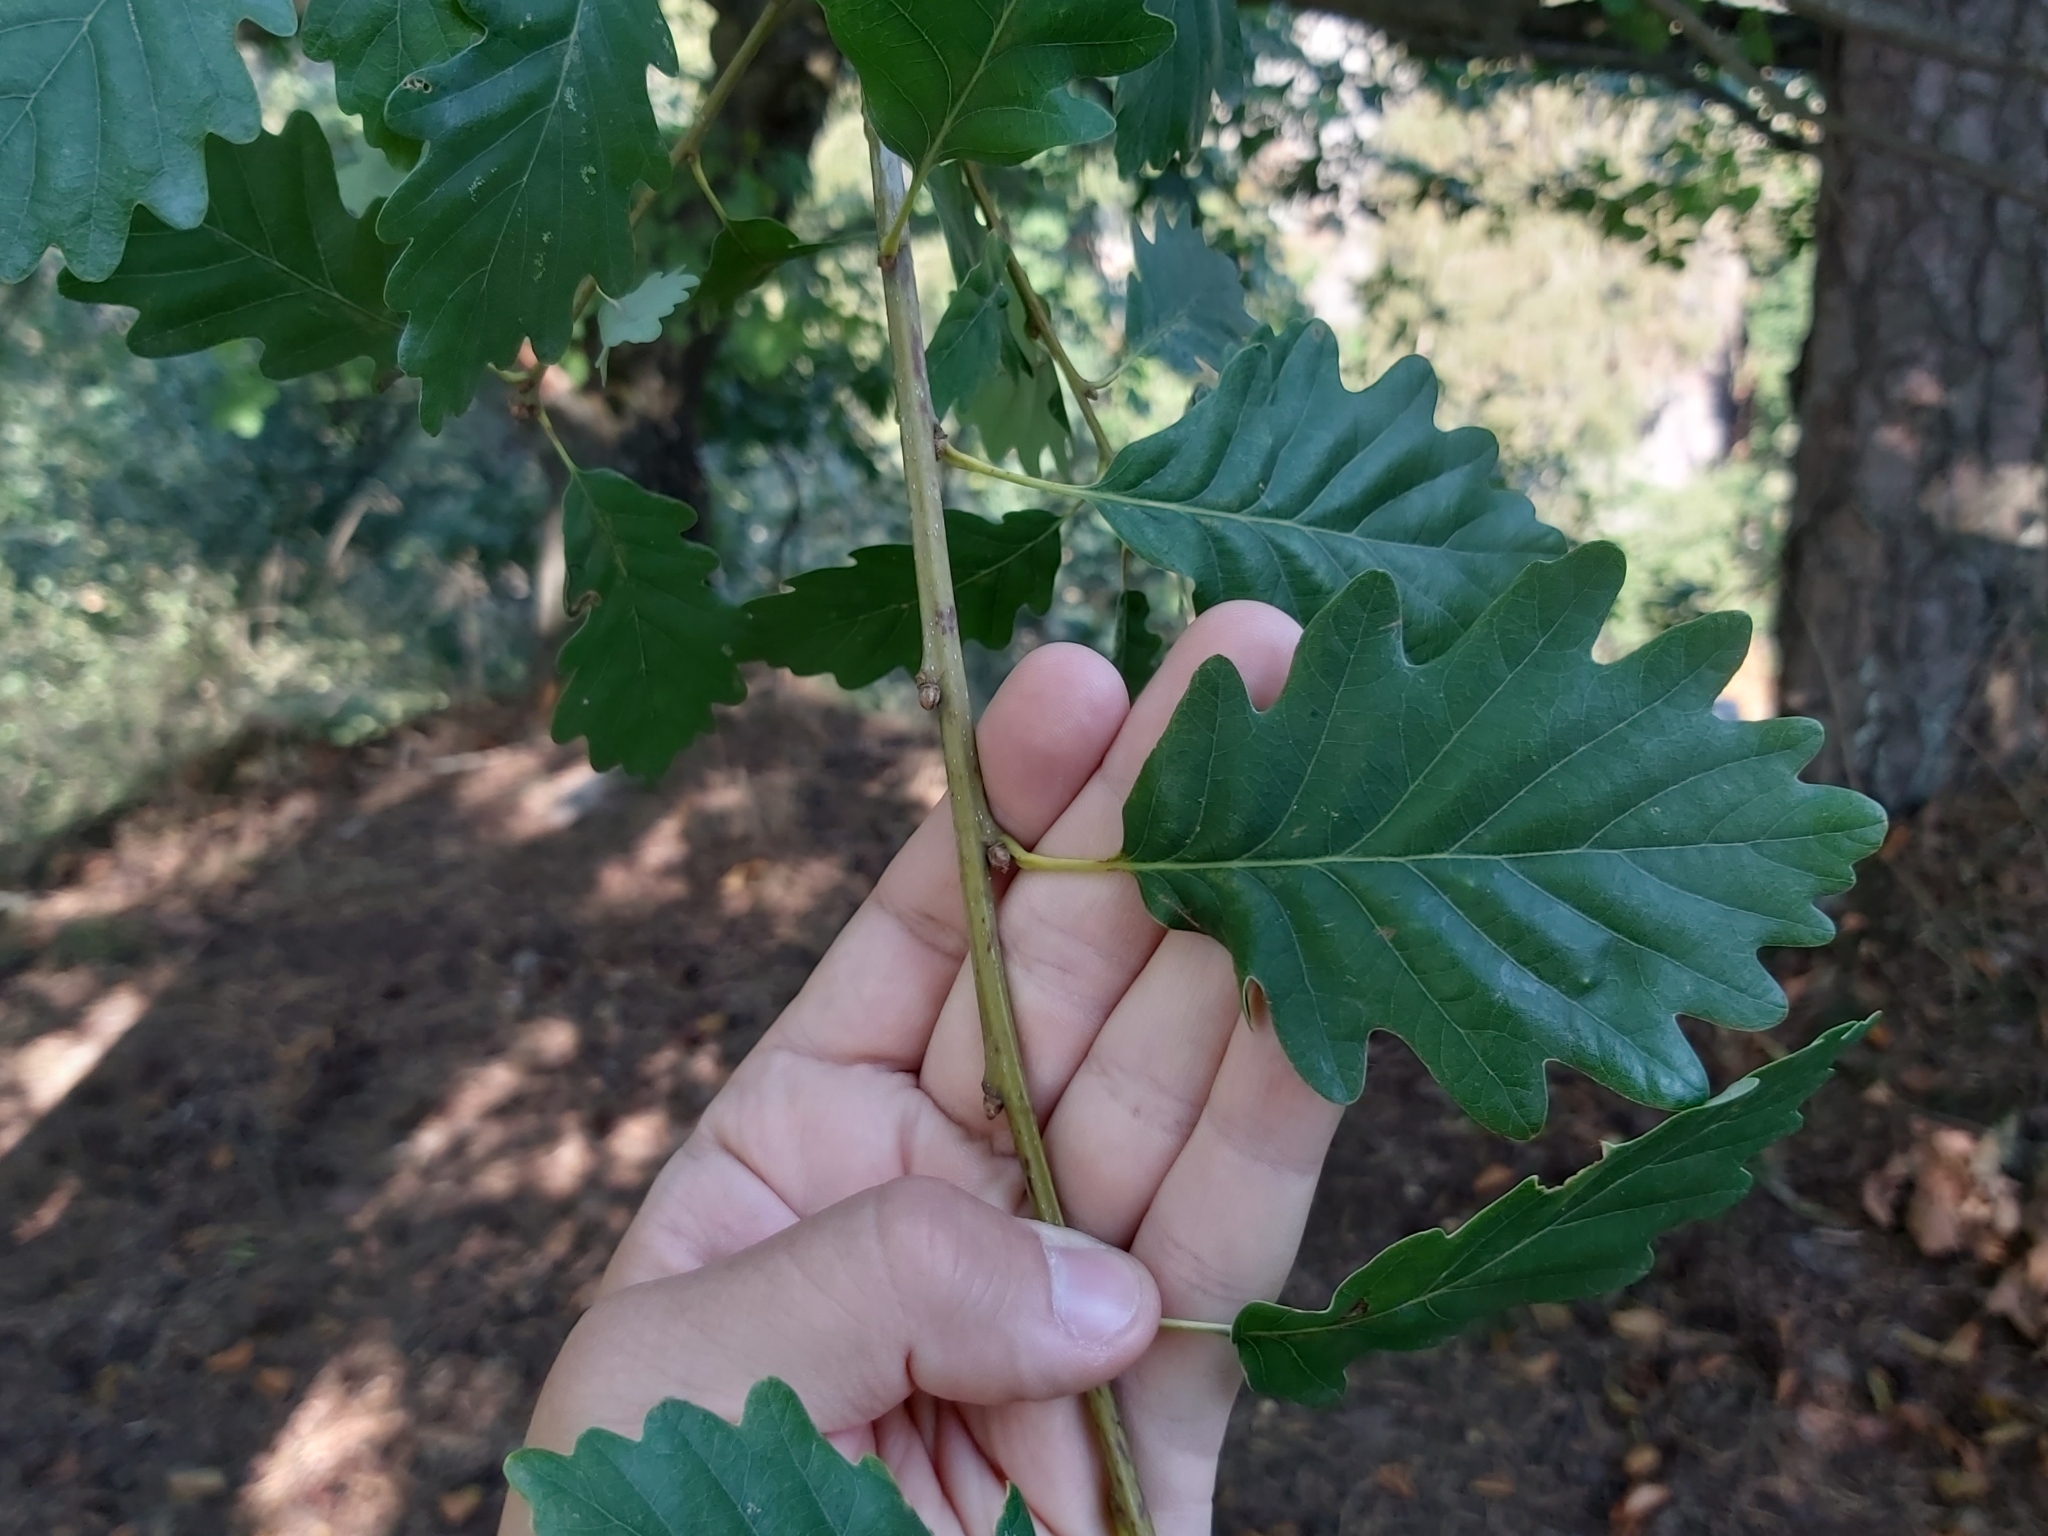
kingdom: Plantae
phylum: Tracheophyta
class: Magnoliopsida
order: Fagales
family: Fagaceae
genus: Quercus
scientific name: Quercus petraea
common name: Sessile oak
